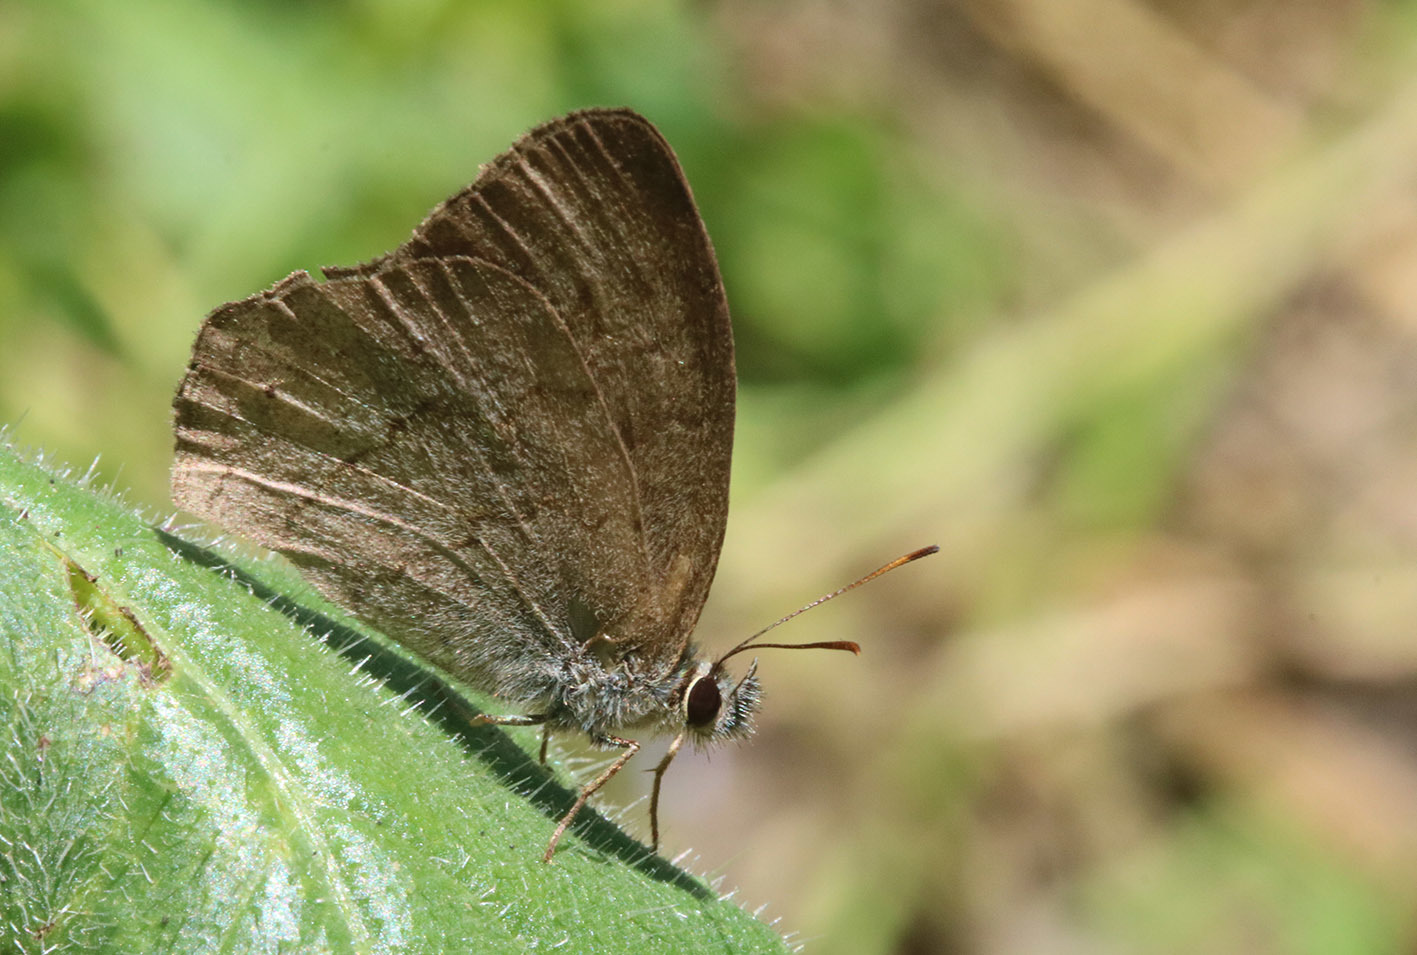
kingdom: Animalia
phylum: Arthropoda
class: Insecta
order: Lepidoptera
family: Nymphalidae
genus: Euptychia
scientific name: Euptychia
